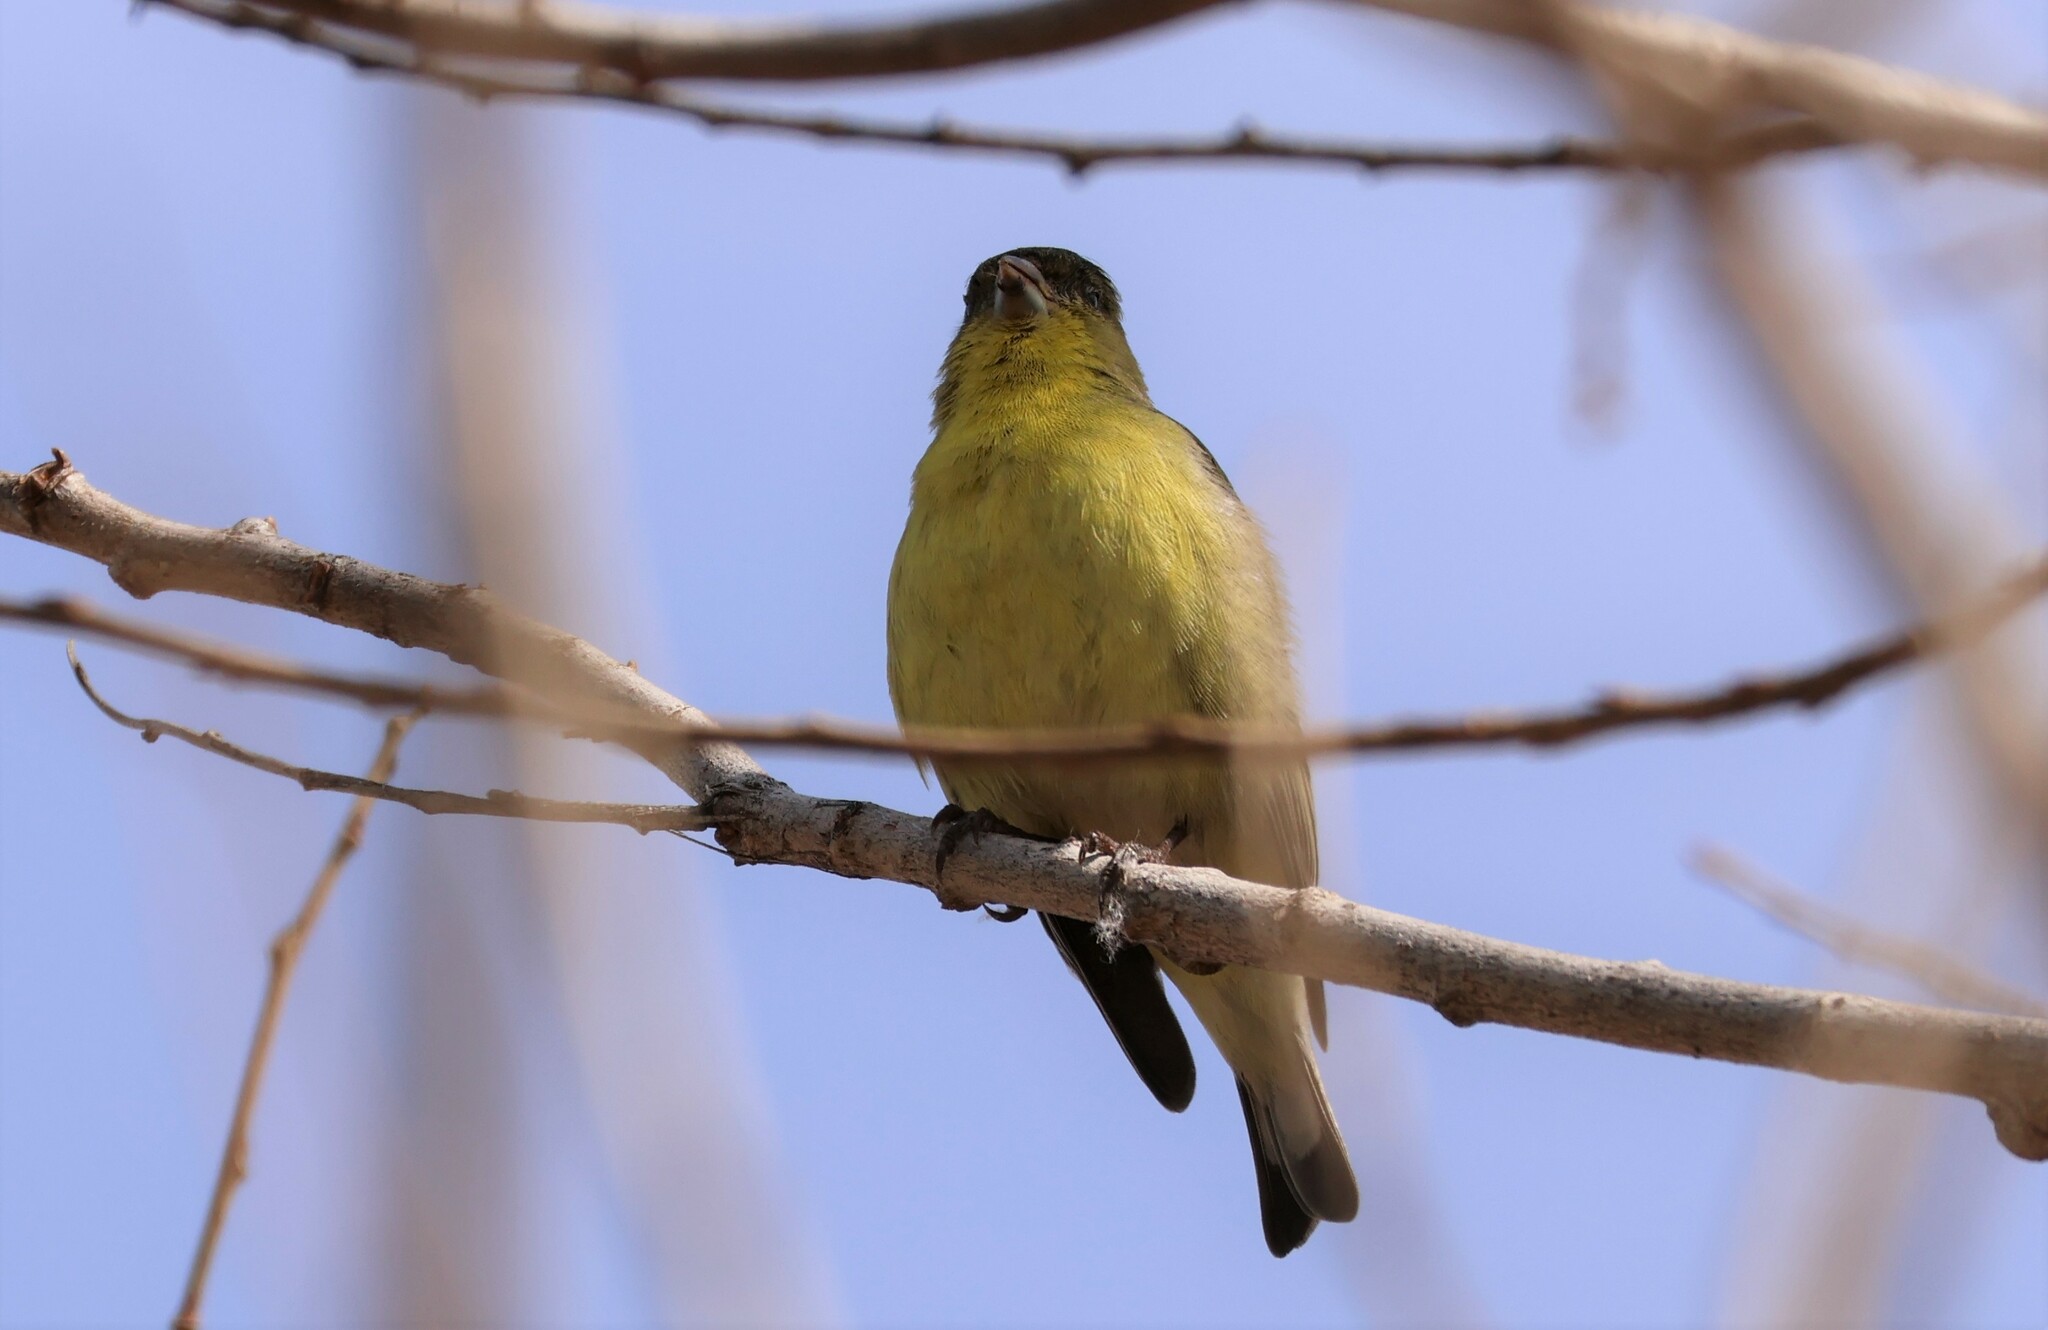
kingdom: Animalia
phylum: Chordata
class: Aves
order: Passeriformes
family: Fringillidae
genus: Spinus
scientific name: Spinus psaltria
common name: Lesser goldfinch
